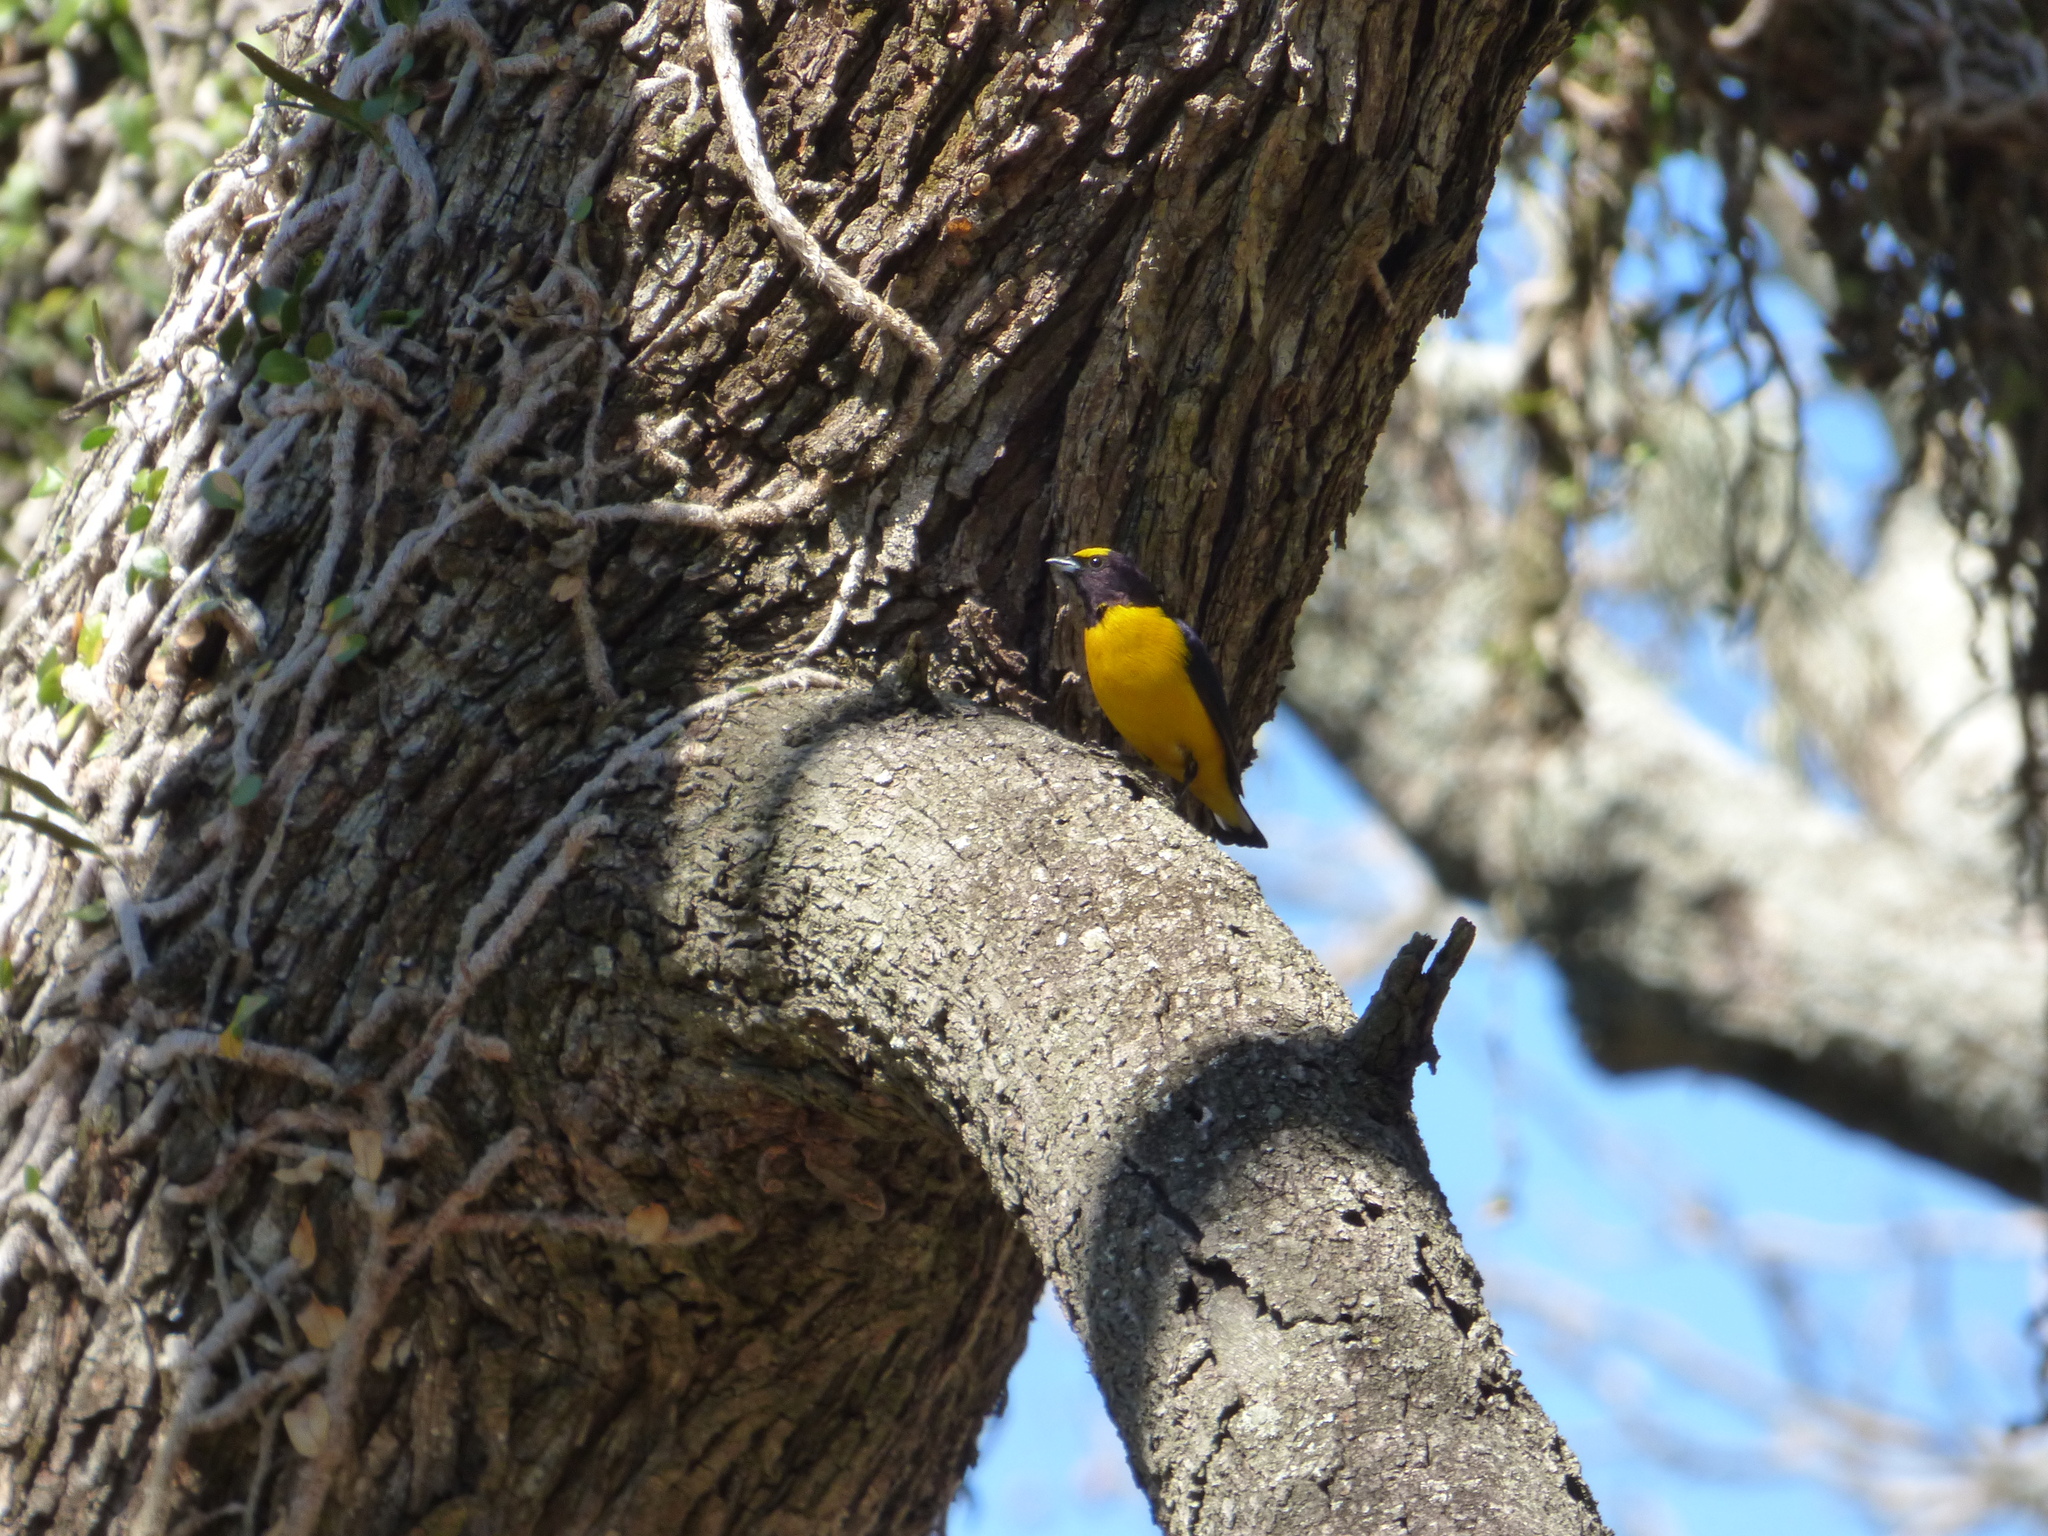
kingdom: Animalia
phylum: Chordata
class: Aves
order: Passeriformes
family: Fringillidae
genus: Euphonia
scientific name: Euphonia chlorotica
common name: Purple-throated euphonia
